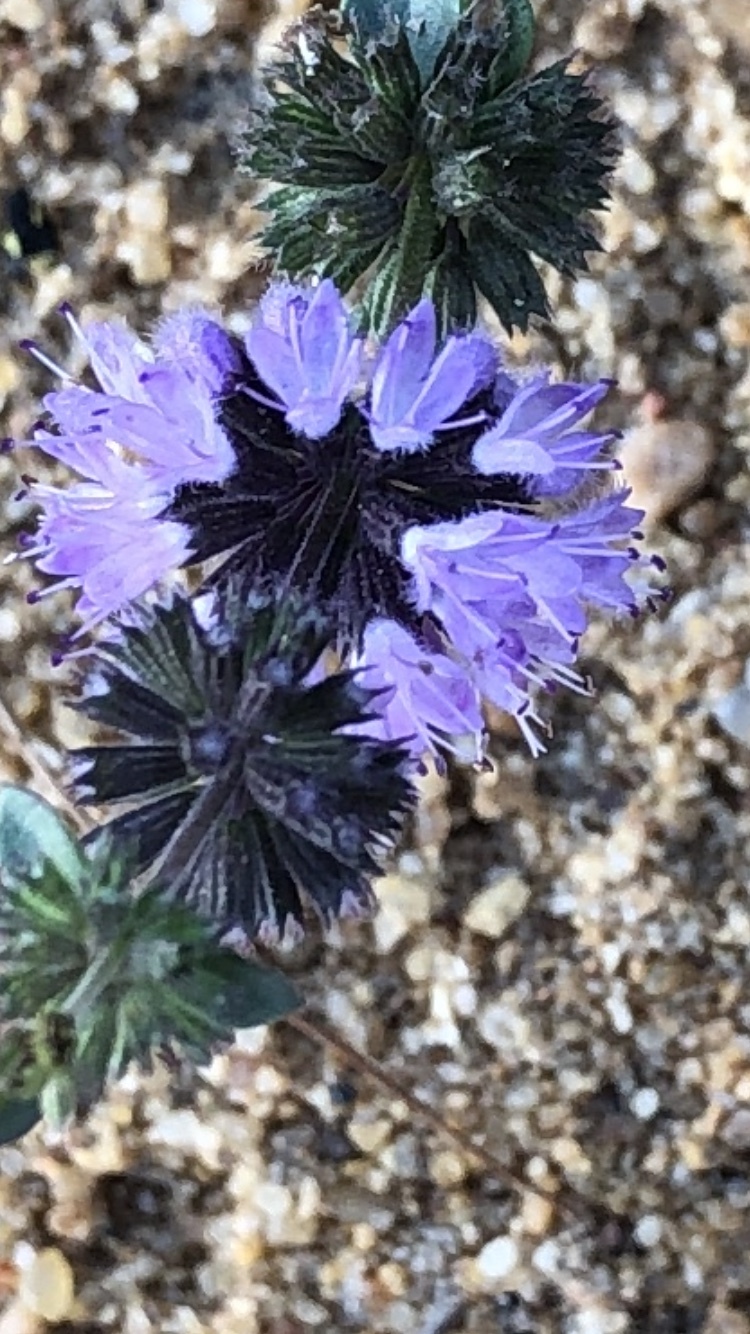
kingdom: Plantae
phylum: Tracheophyta
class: Magnoliopsida
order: Lamiales
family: Lamiaceae
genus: Mentha
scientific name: Mentha pulegium
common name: Pennyroyal
